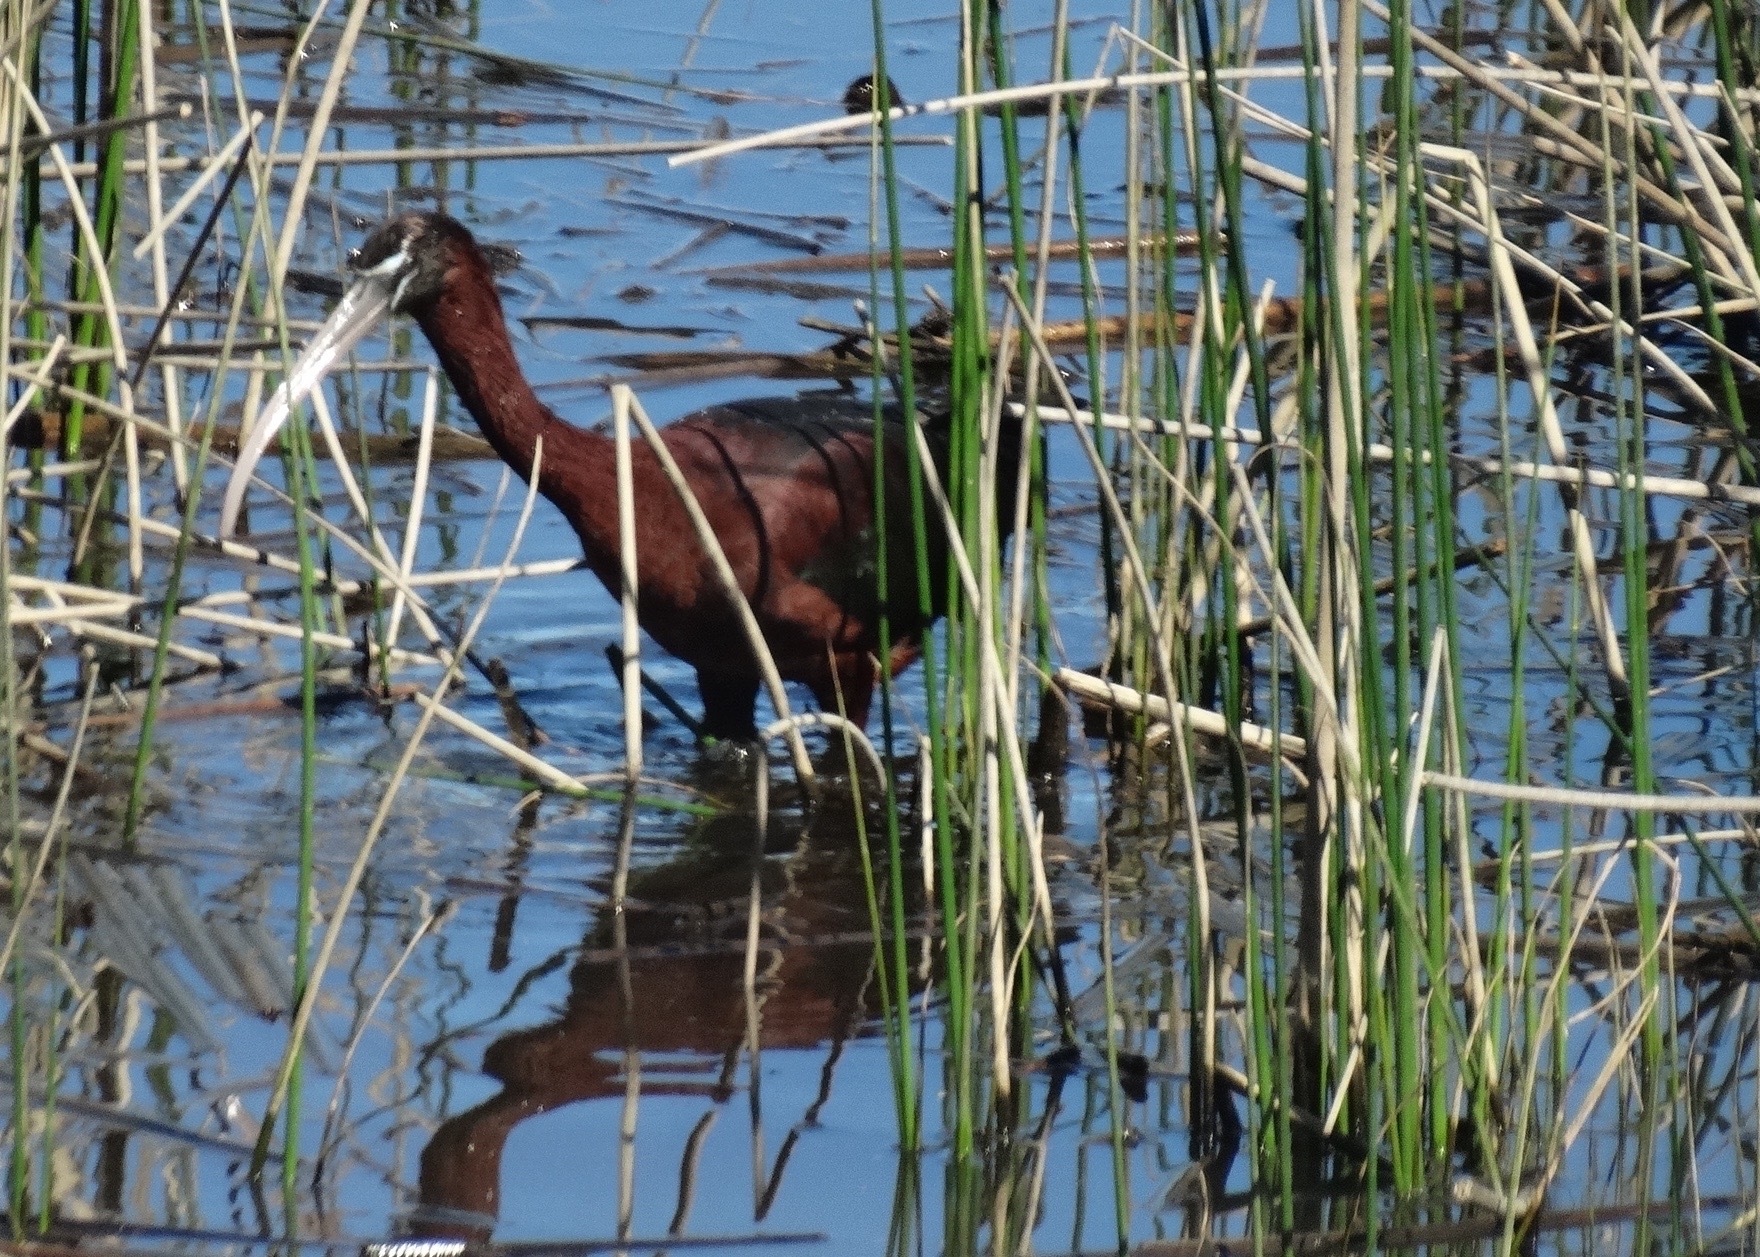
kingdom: Animalia
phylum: Chordata
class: Aves
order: Pelecaniformes
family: Threskiornithidae
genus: Plegadis
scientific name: Plegadis falcinellus
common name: Glossy ibis
